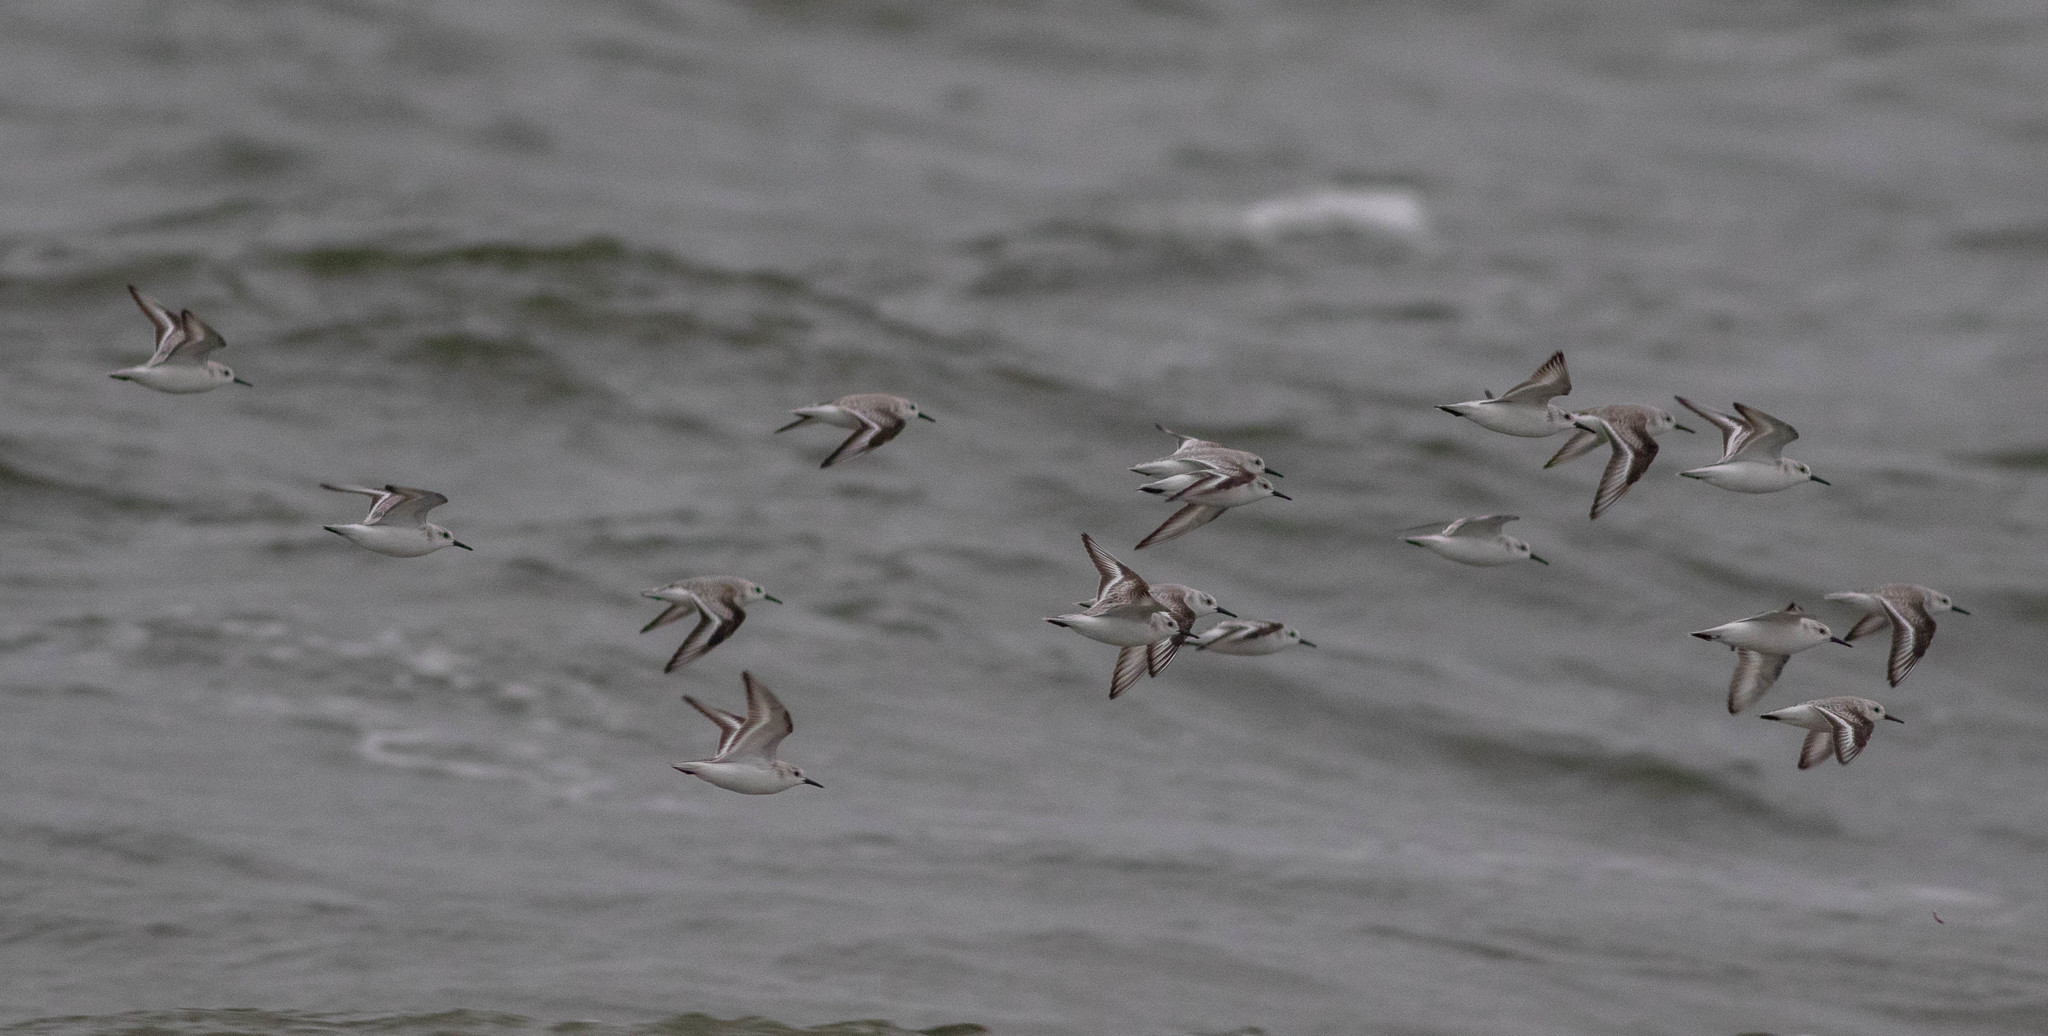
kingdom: Animalia
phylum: Chordata
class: Aves
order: Charadriiformes
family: Scolopacidae
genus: Calidris
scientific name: Calidris alba
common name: Sanderling
